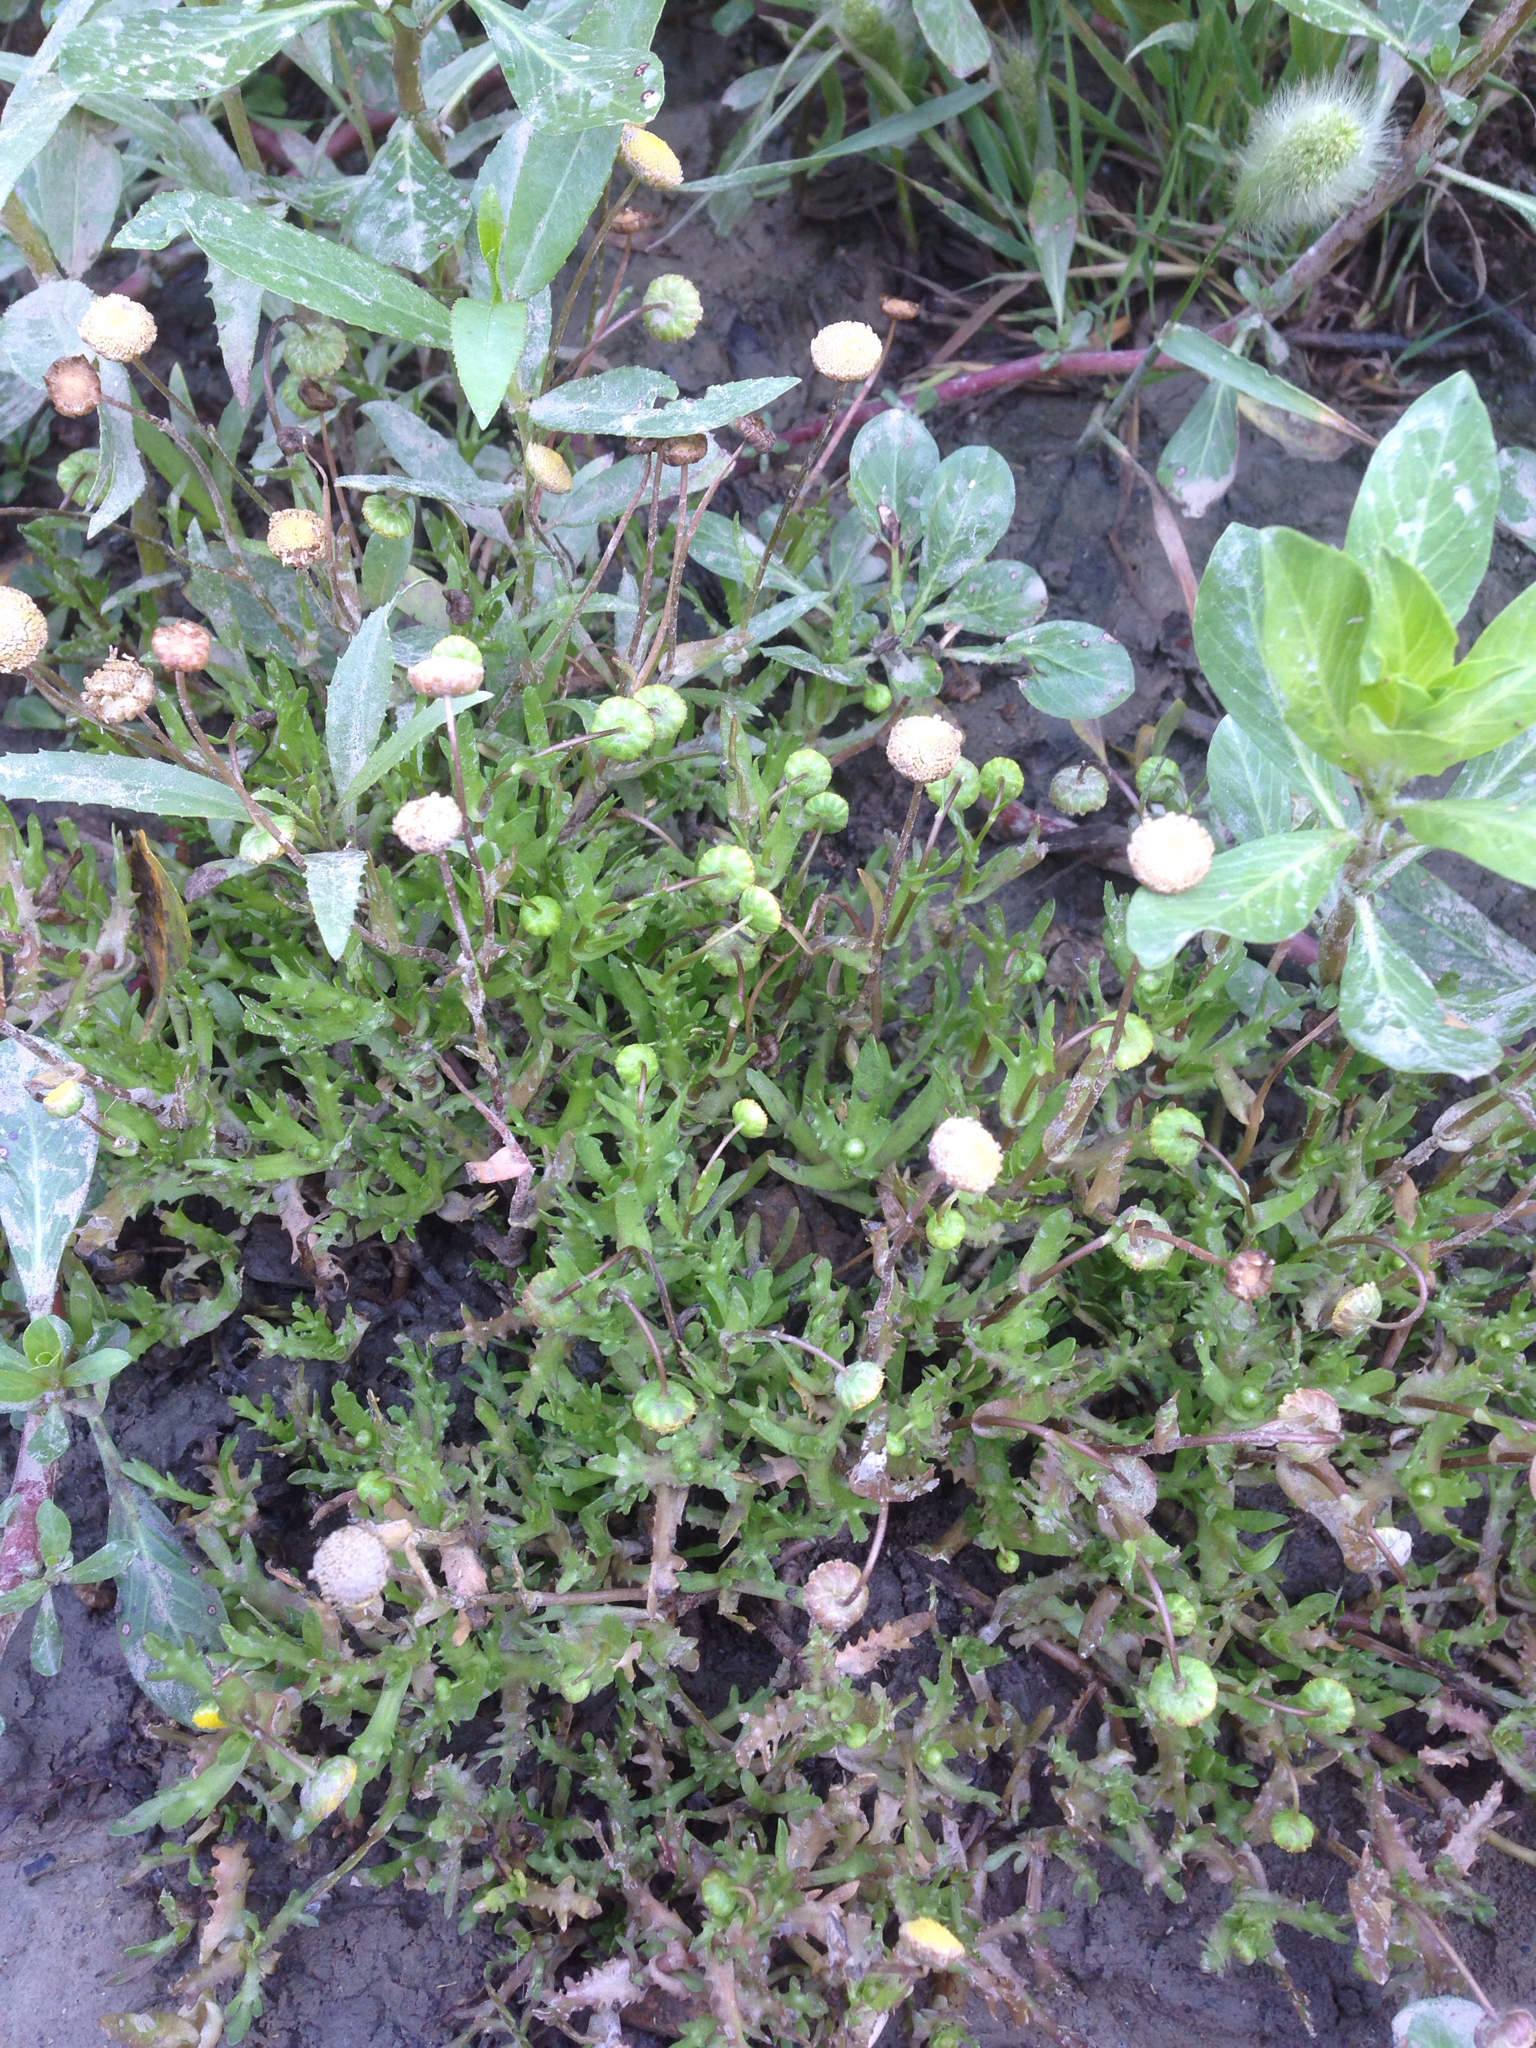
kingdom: Plantae
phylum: Tracheophyta
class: Magnoliopsida
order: Asterales
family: Asteraceae
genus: Cotula
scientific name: Cotula coronopifolia
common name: Buttonweed
